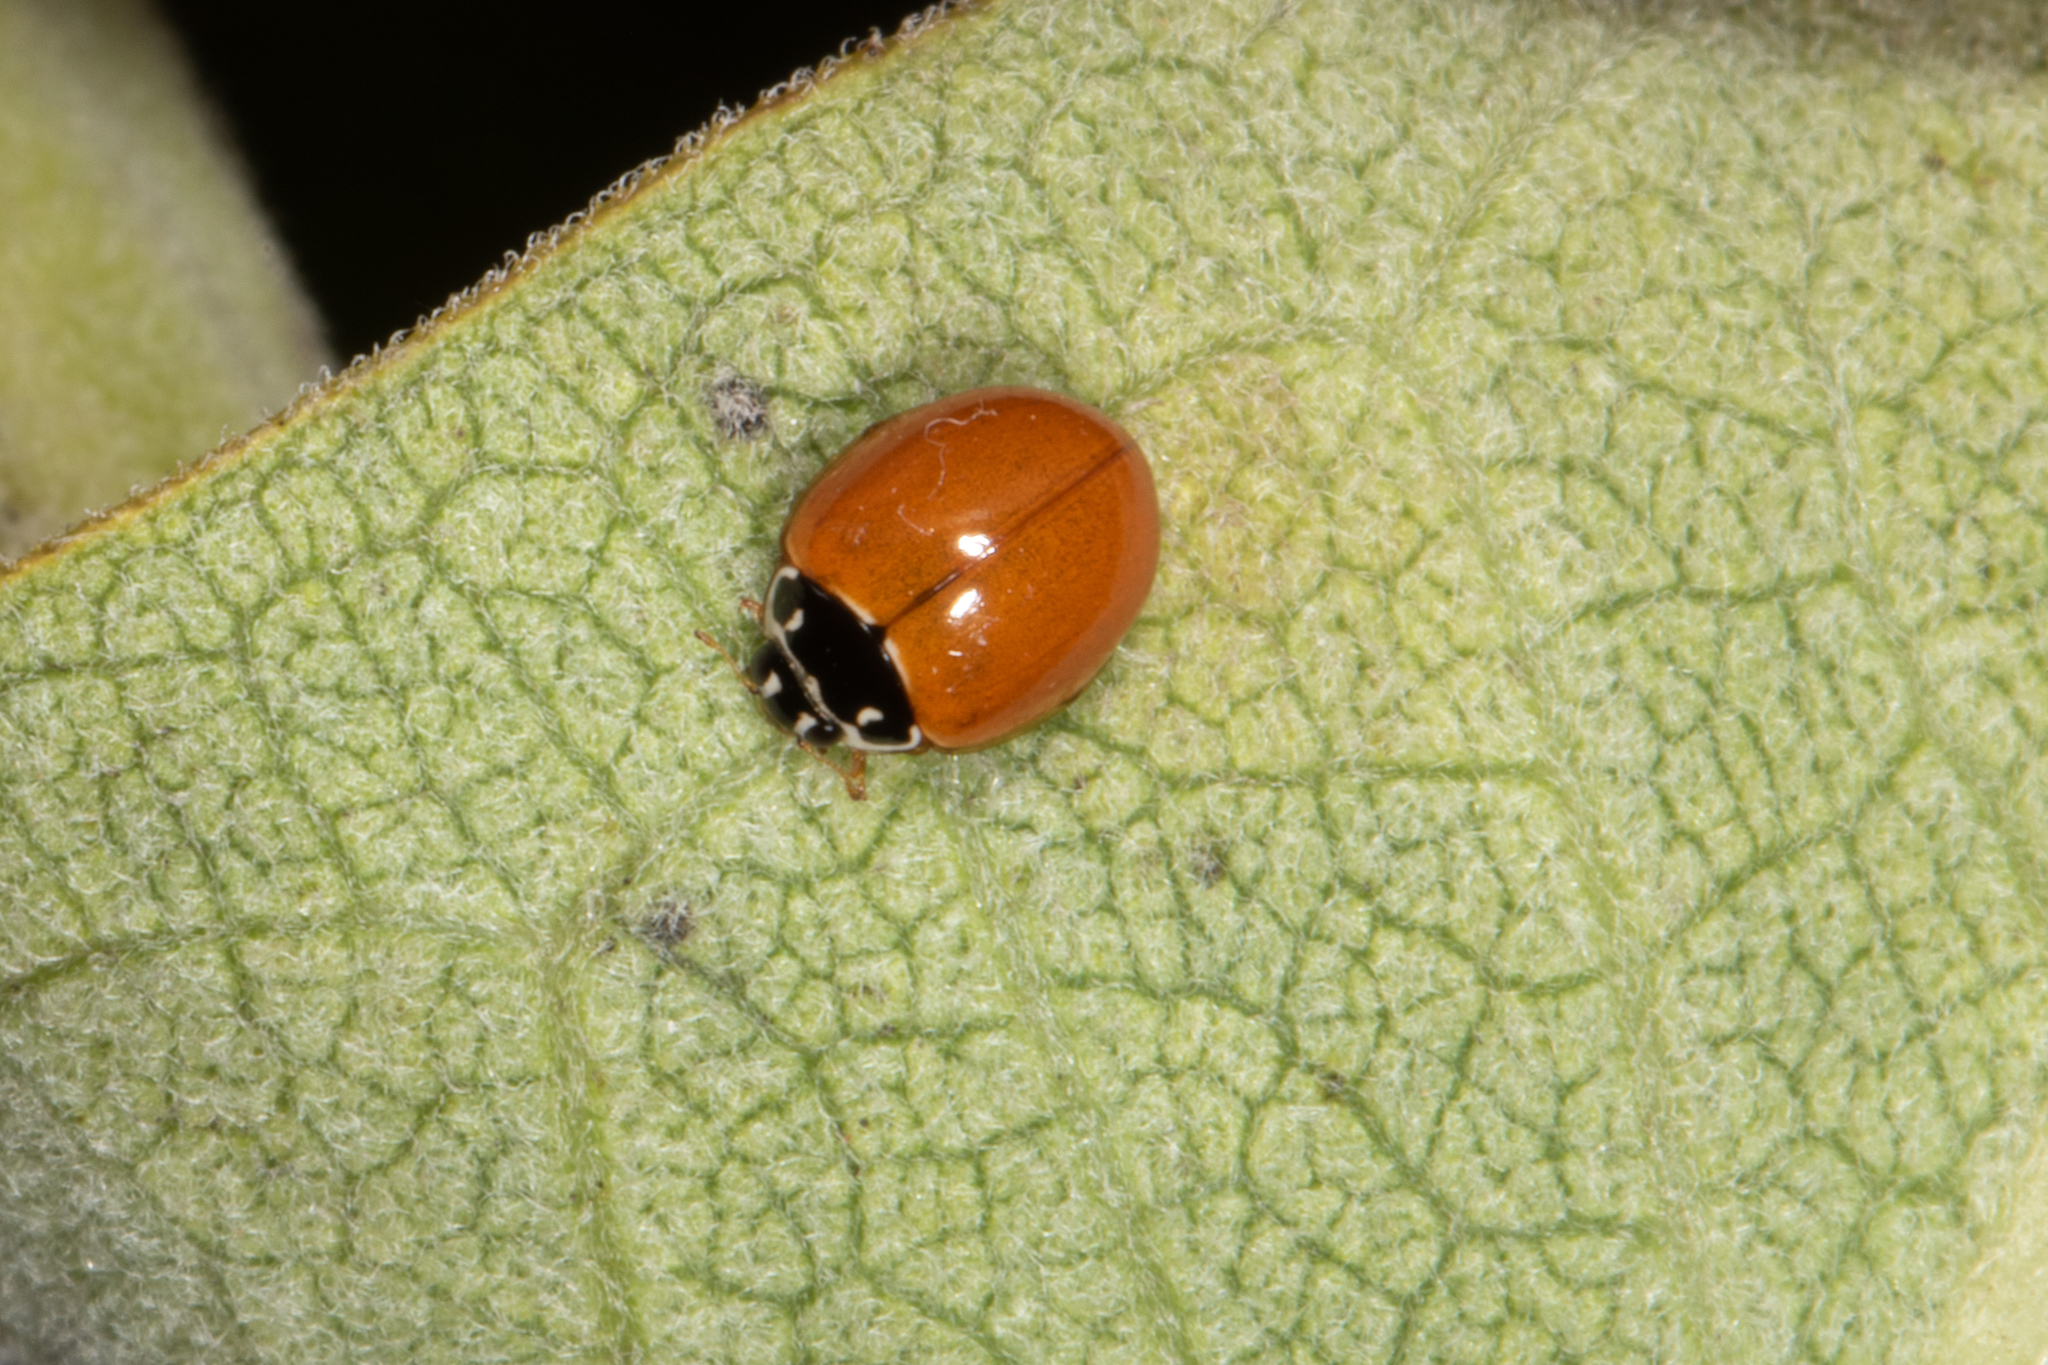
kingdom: Animalia
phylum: Arthropoda
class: Insecta
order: Coleoptera
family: Coccinellidae
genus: Cycloneda
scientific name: Cycloneda munda
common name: Polished lady beetle
